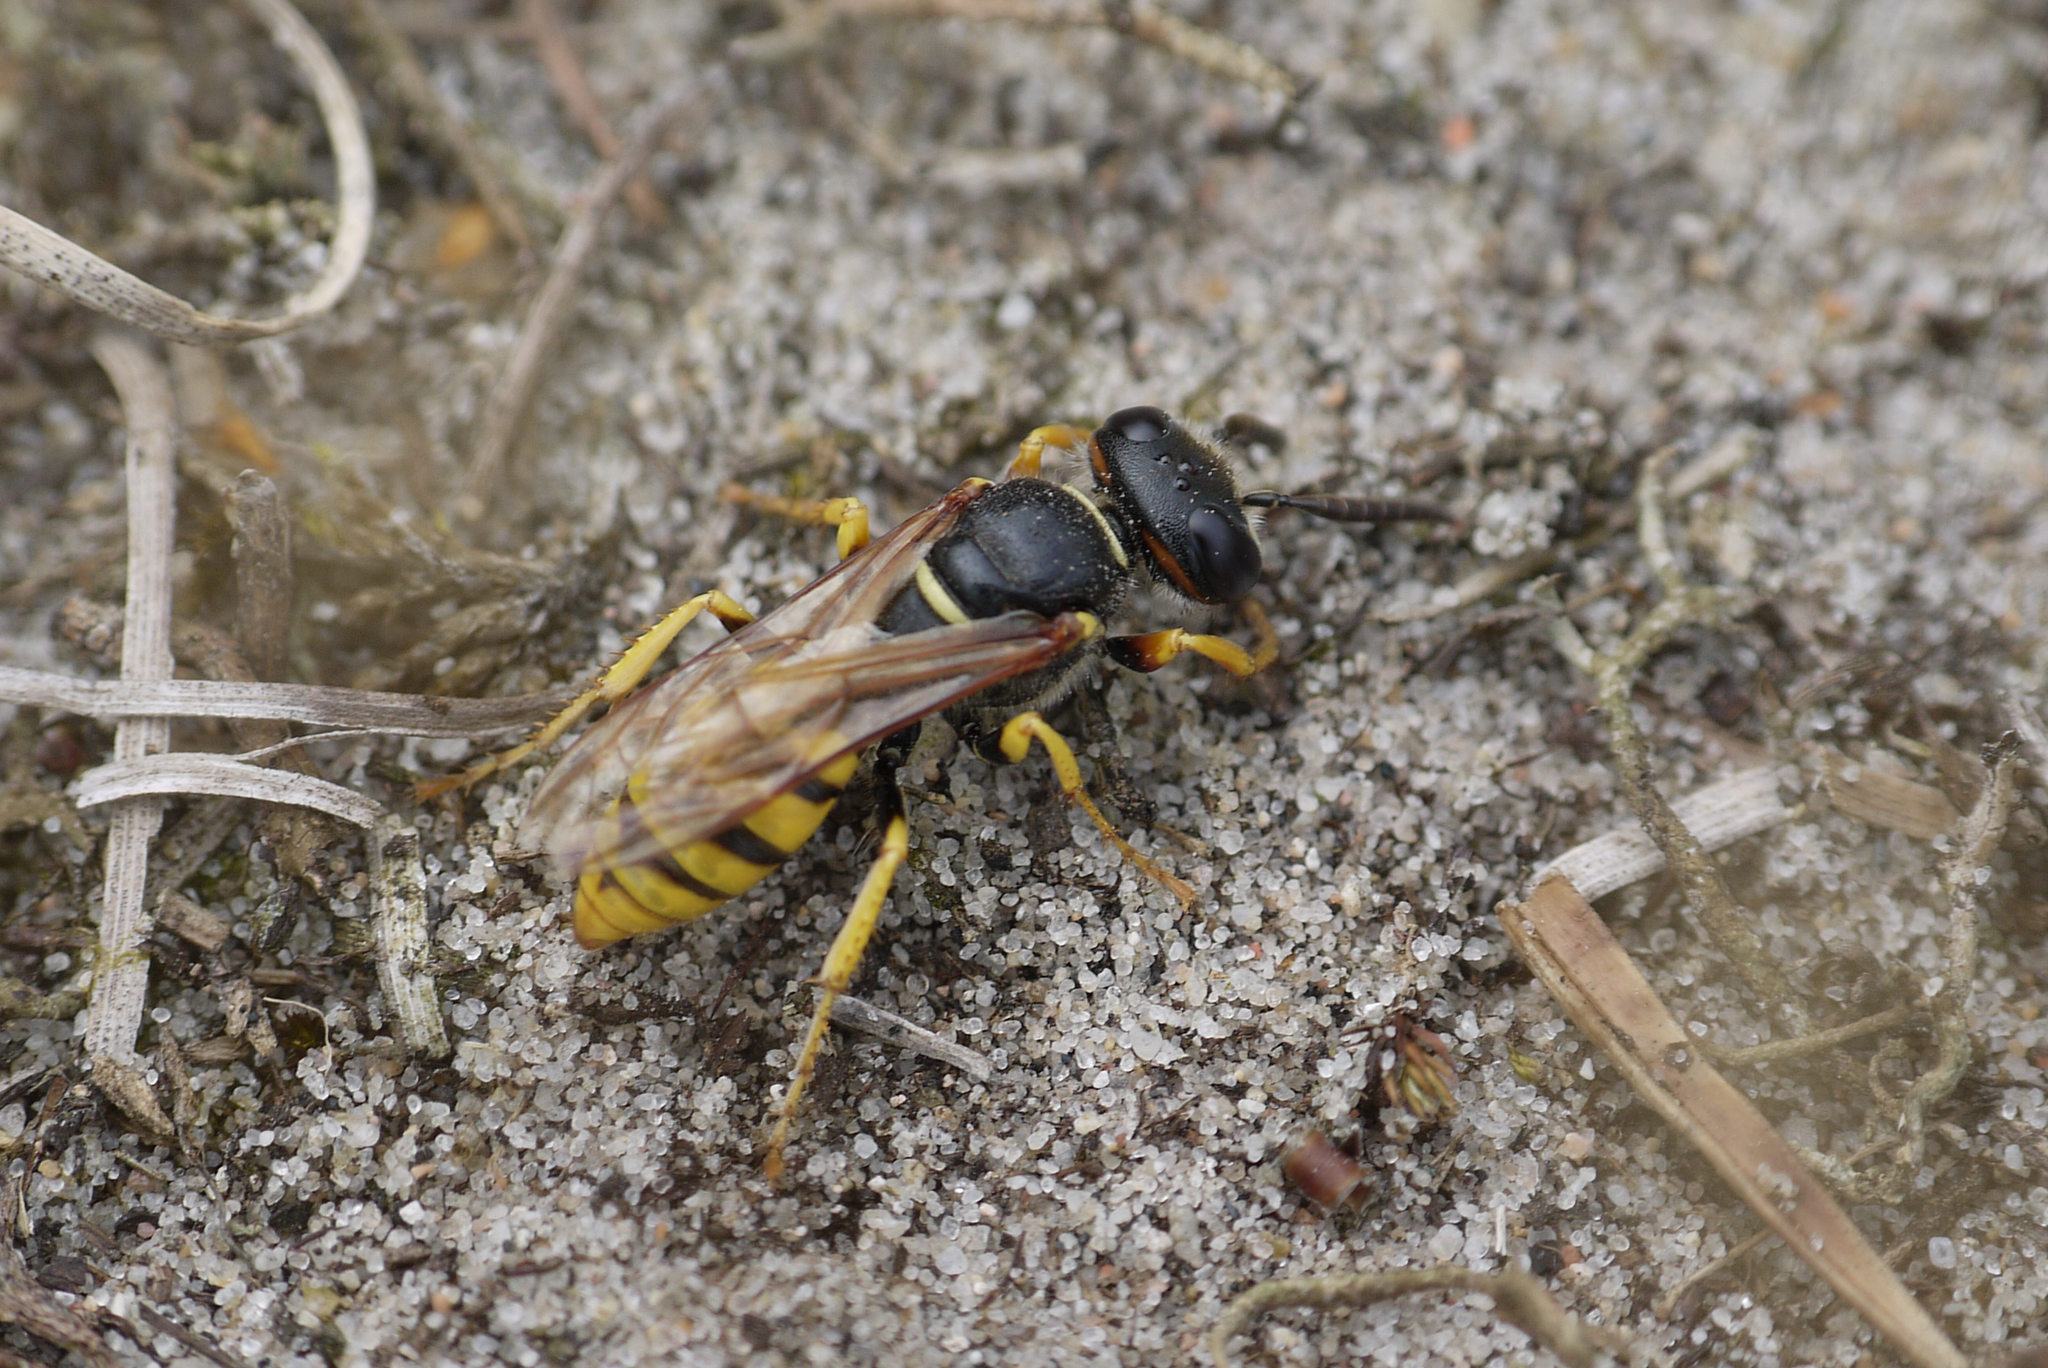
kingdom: Animalia
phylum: Arthropoda
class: Insecta
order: Hymenoptera
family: Crabronidae
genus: Philanthus
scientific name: Philanthus triangulum
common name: Bee wolf
